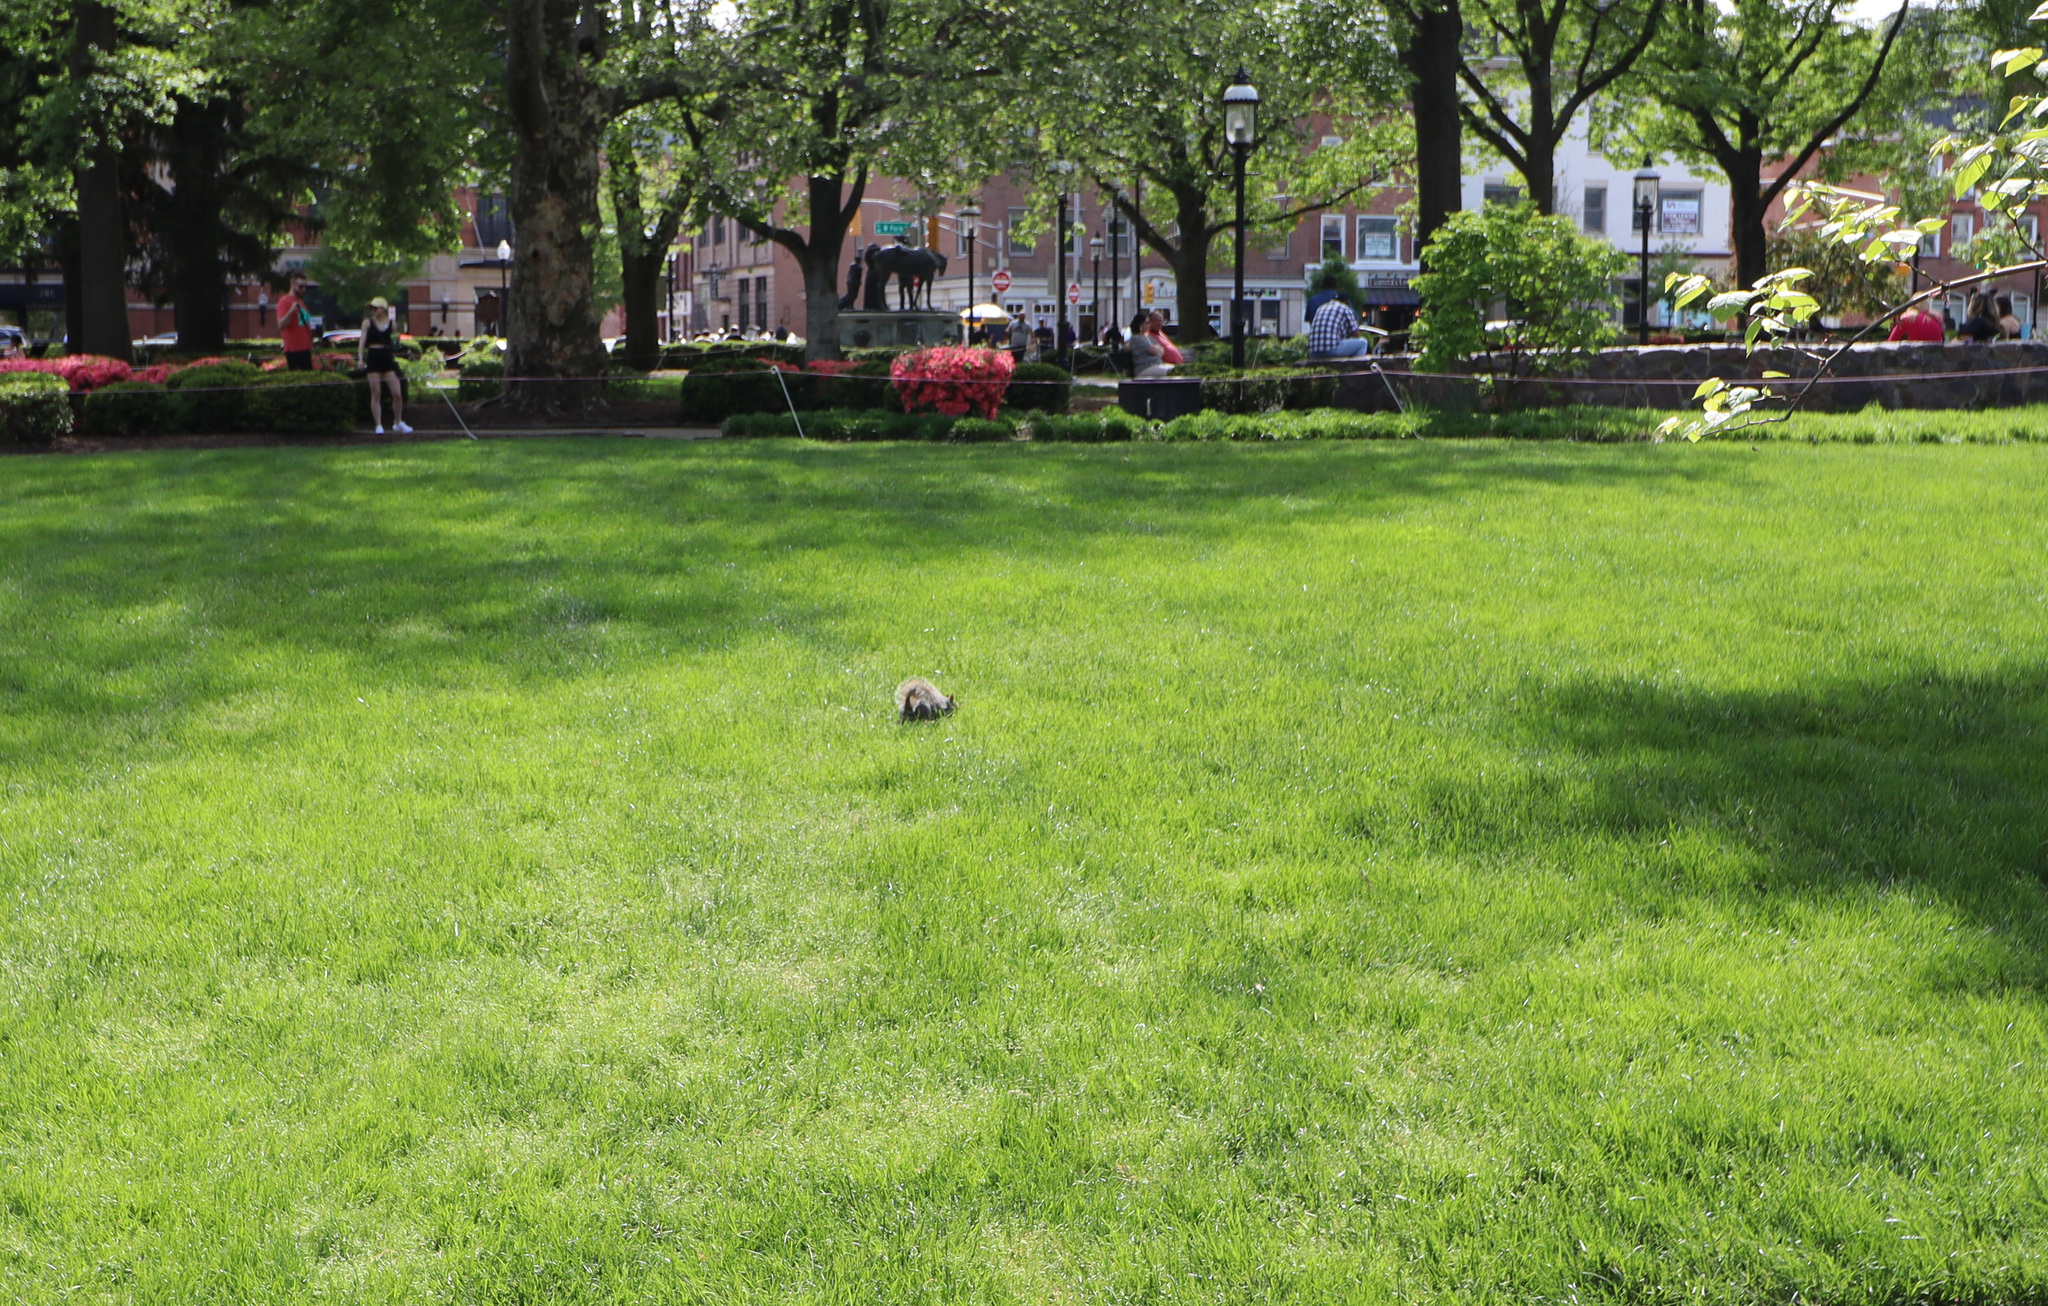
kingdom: Animalia
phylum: Chordata
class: Mammalia
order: Rodentia
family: Sciuridae
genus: Sciurus
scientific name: Sciurus carolinensis
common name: Eastern gray squirrel
